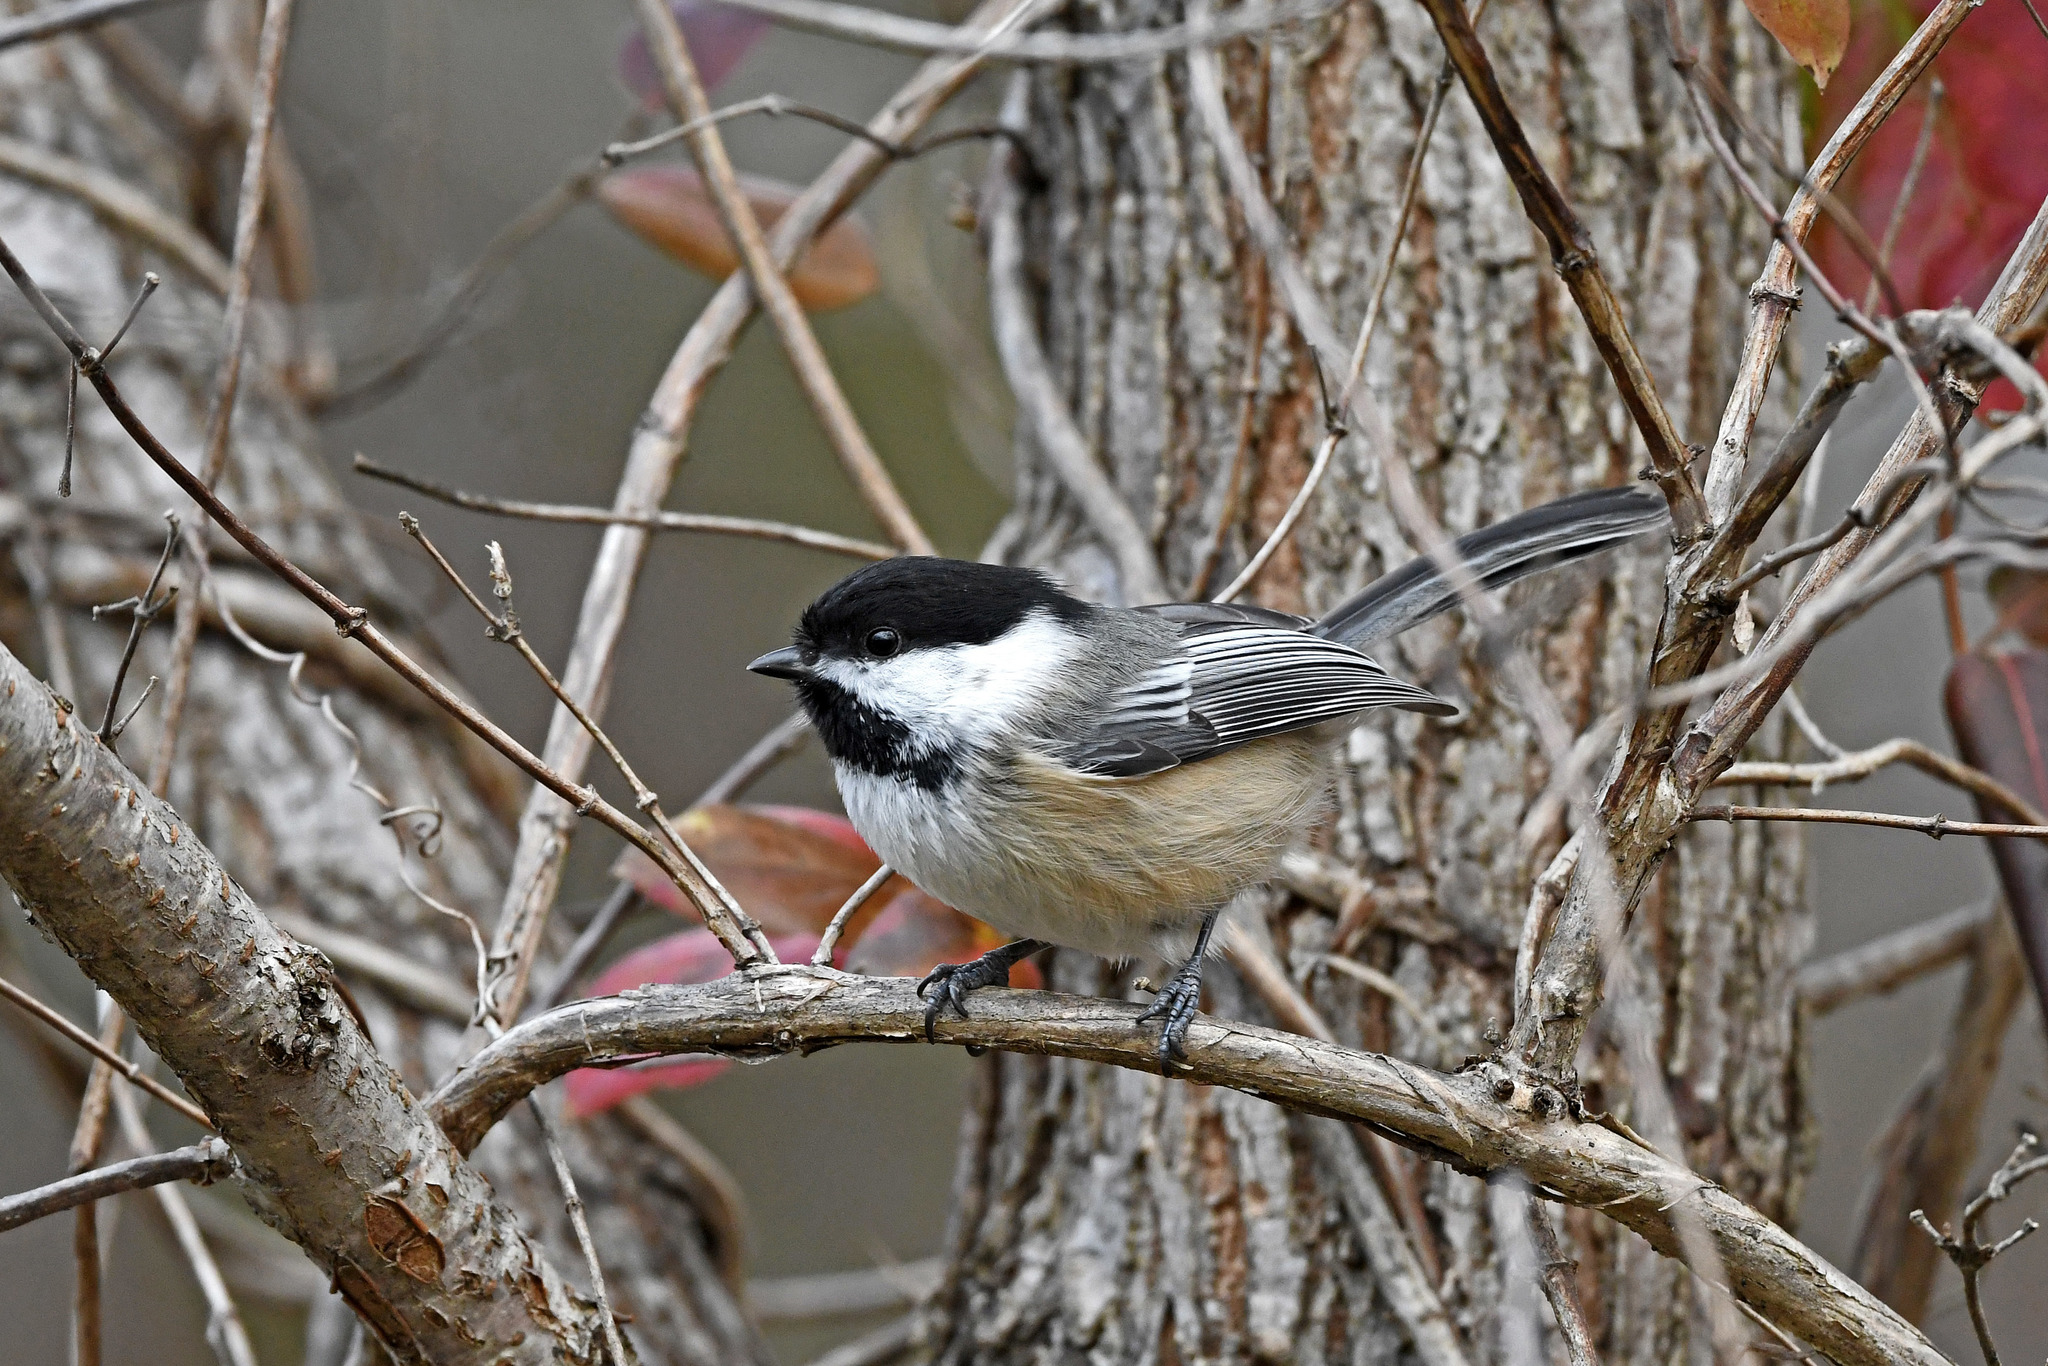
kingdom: Animalia
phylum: Chordata
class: Aves
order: Passeriformes
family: Paridae
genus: Poecile
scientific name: Poecile atricapillus
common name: Black-capped chickadee
